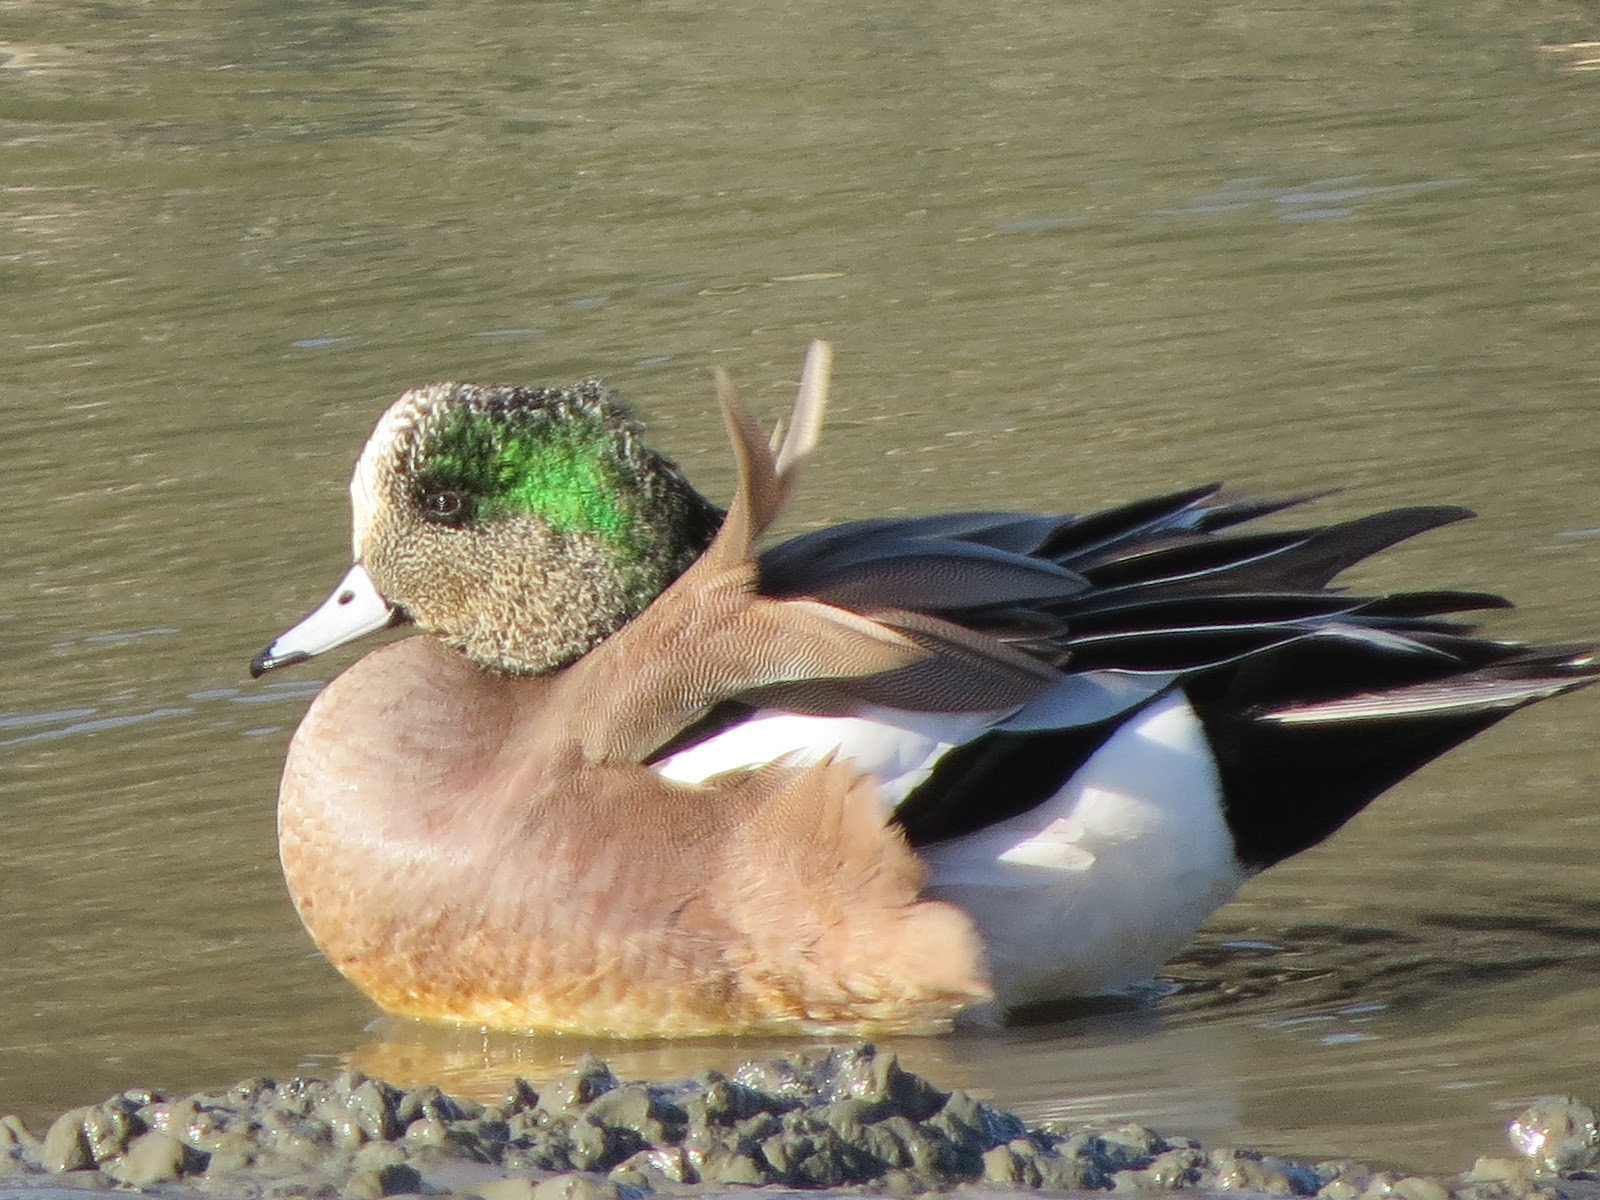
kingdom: Animalia
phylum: Chordata
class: Aves
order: Anseriformes
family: Anatidae
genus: Mareca
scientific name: Mareca americana
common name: American wigeon
